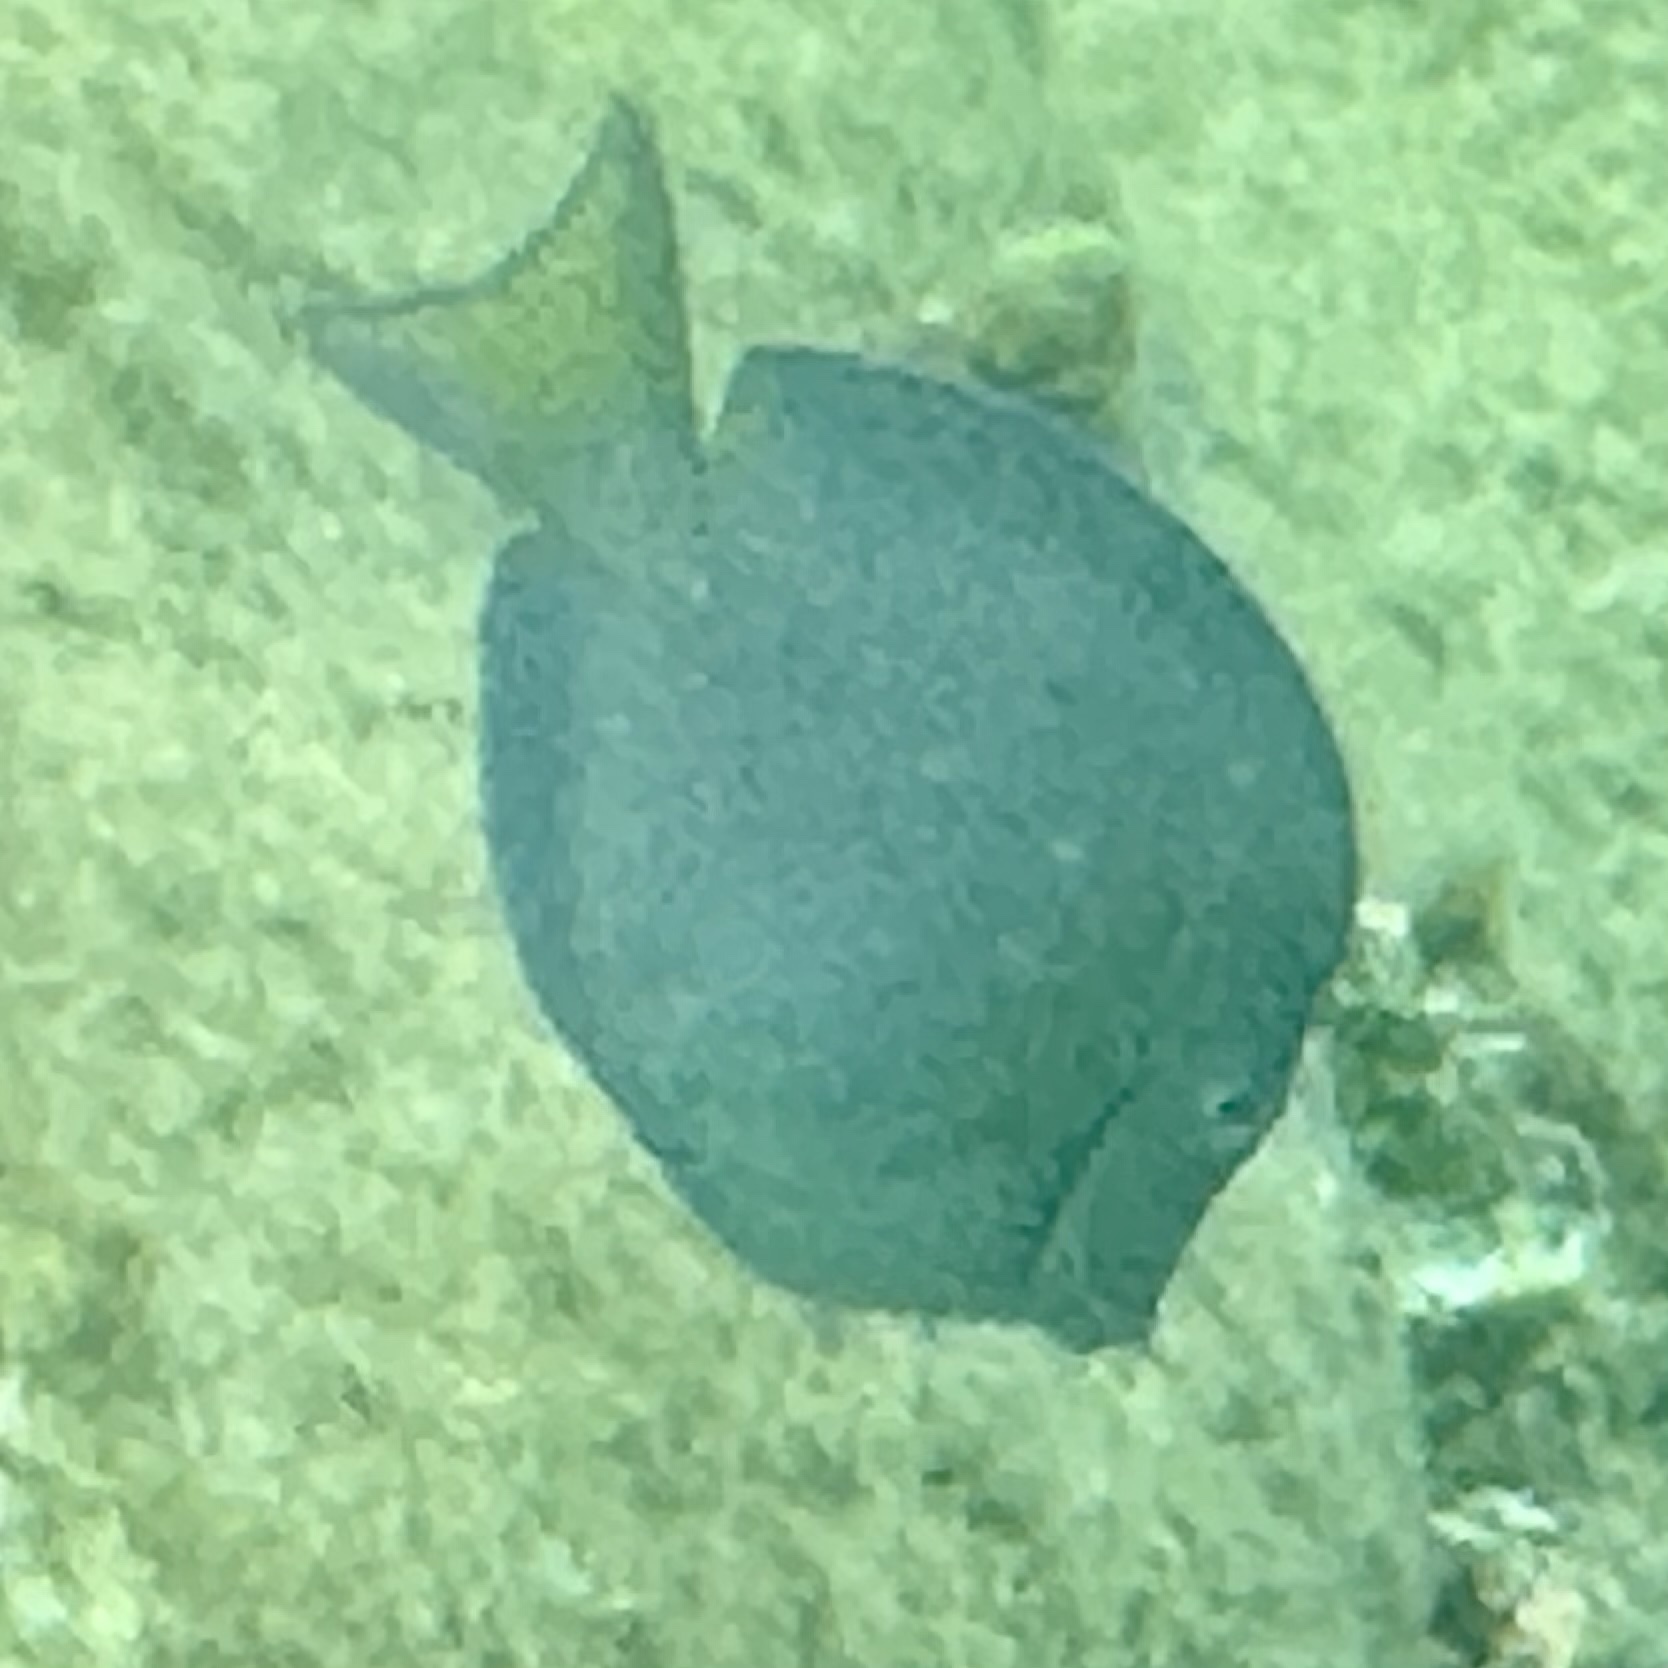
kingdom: Animalia
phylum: Chordata
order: Perciformes
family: Acanthuridae
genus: Acanthurus
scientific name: Acanthurus coeruleus
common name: Blue tang
